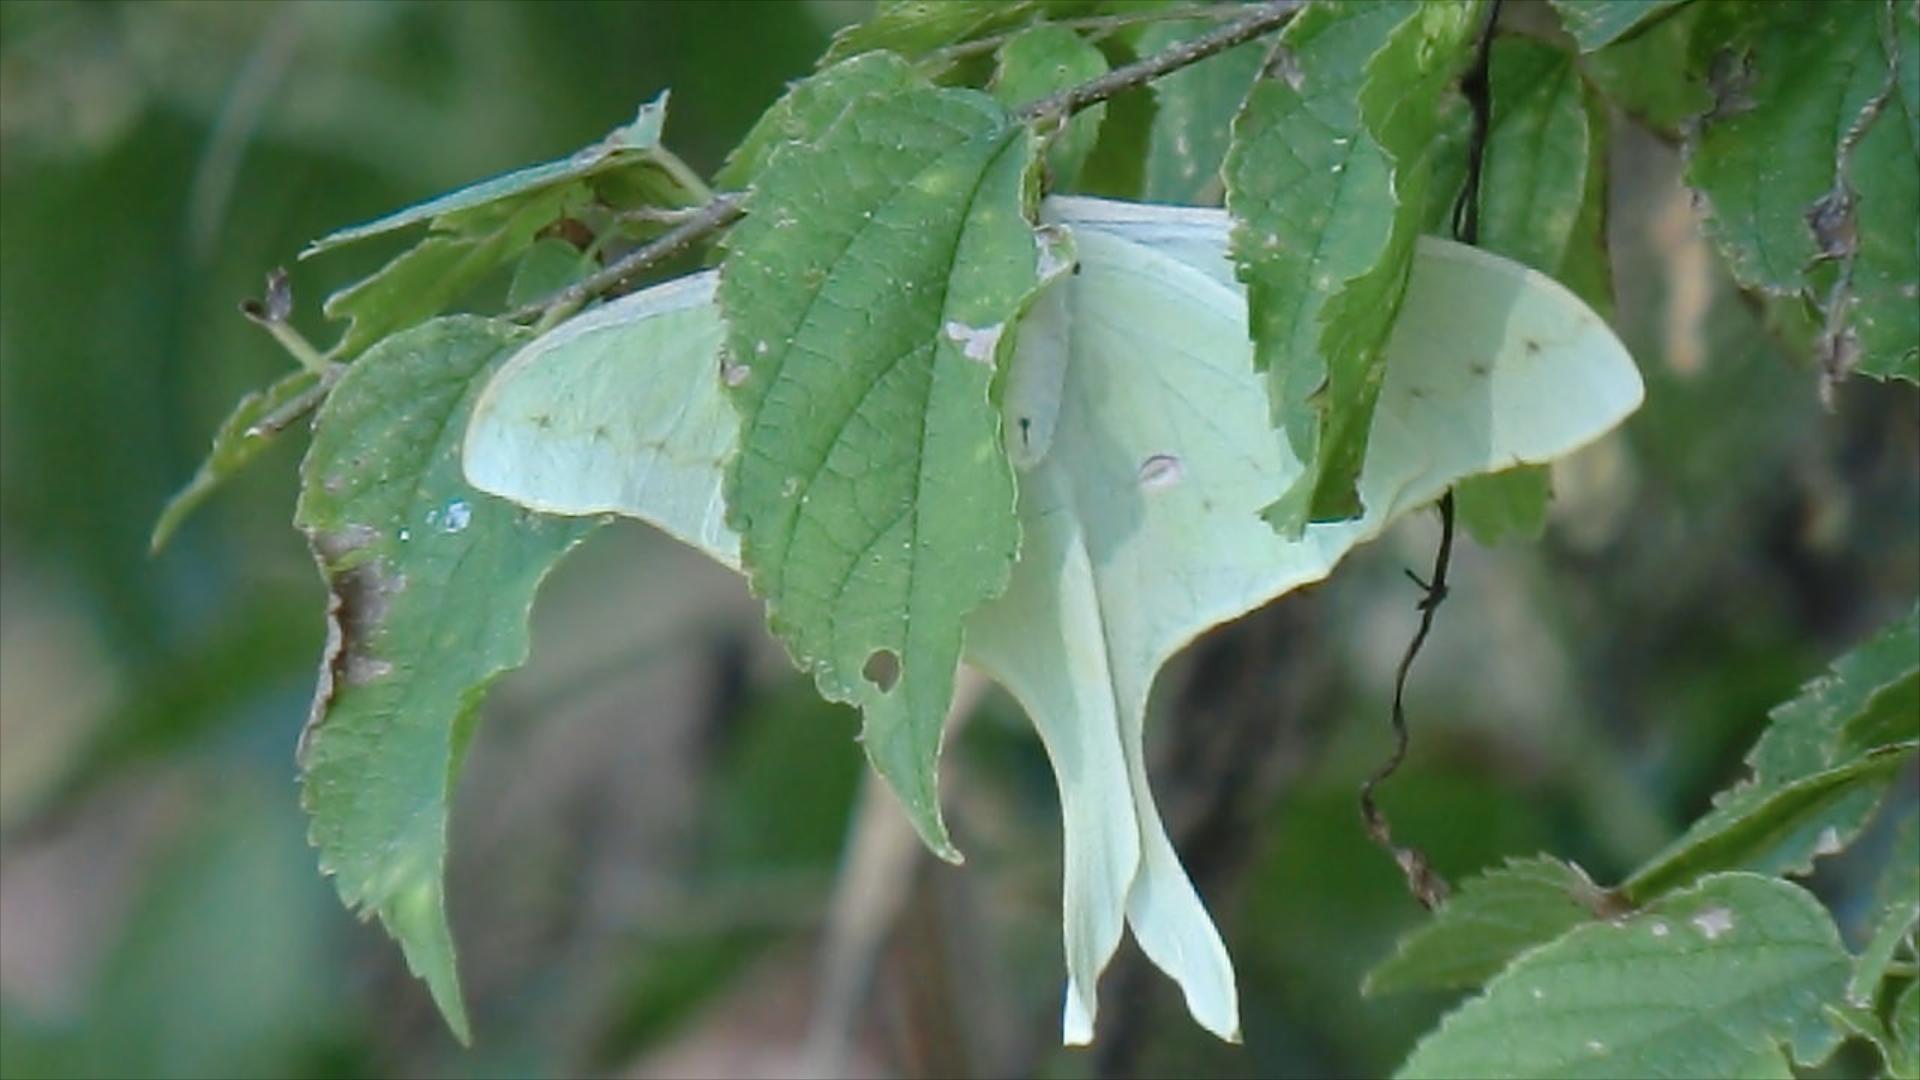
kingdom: Animalia
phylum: Arthropoda
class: Insecta
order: Lepidoptera
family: Saturniidae
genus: Actias
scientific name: Actias luna
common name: Luna moth
